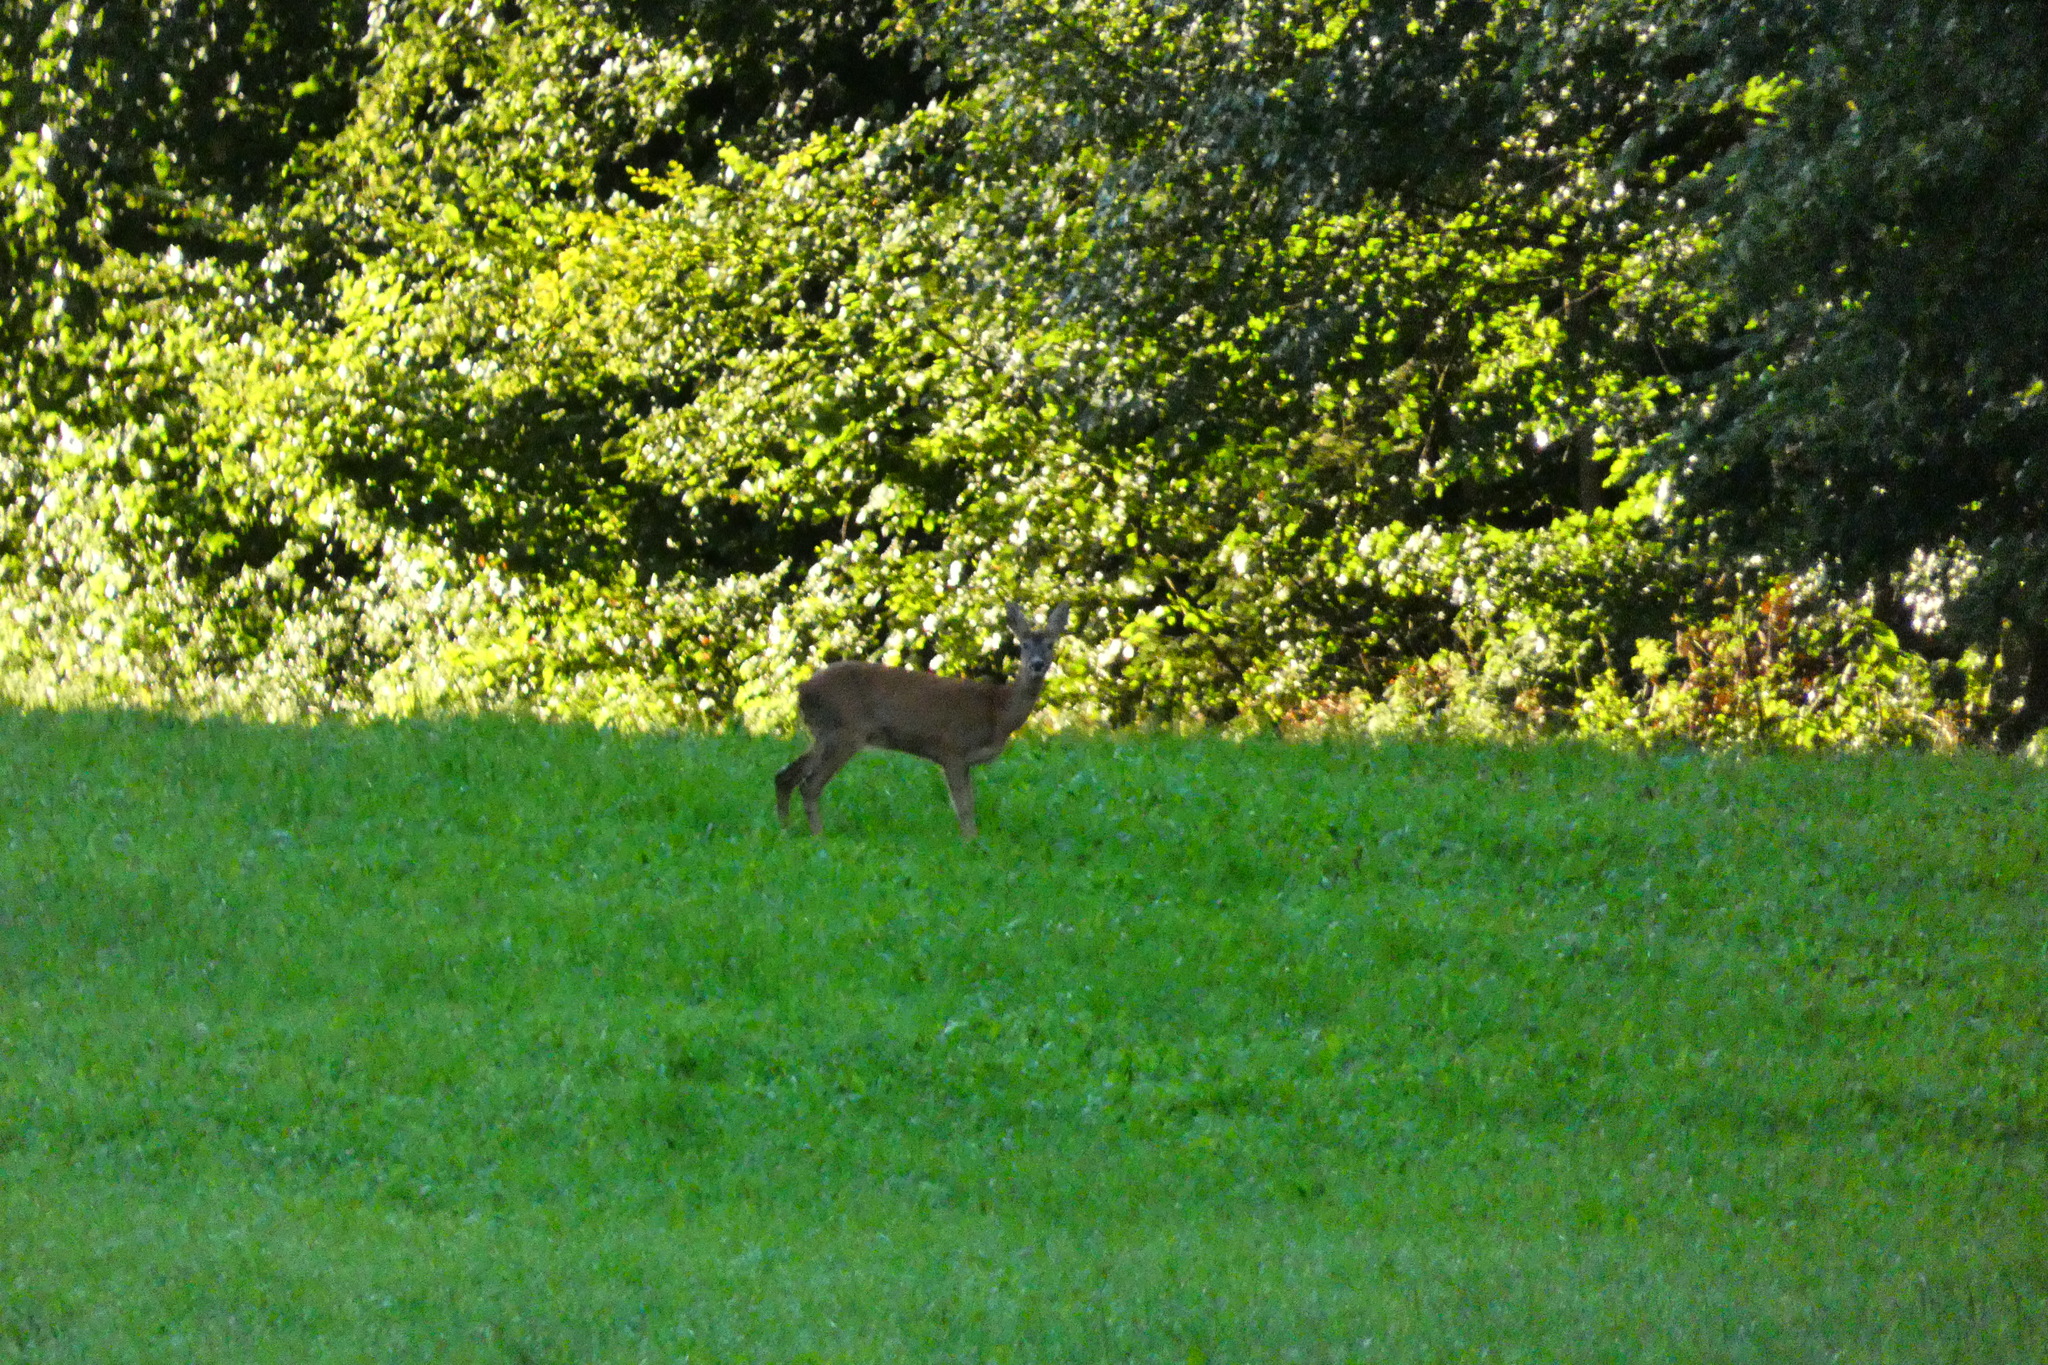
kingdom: Animalia
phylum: Chordata
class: Mammalia
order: Artiodactyla
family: Cervidae
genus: Capreolus
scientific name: Capreolus capreolus
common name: Western roe deer
